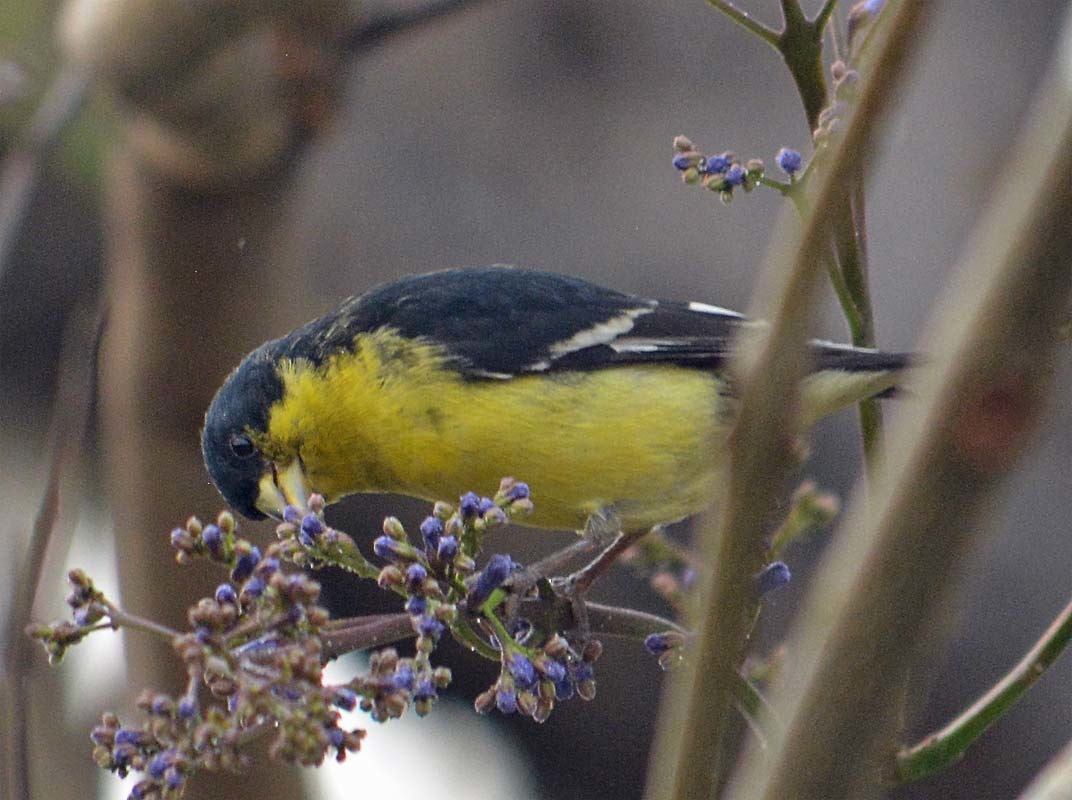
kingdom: Animalia
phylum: Chordata
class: Aves
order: Passeriformes
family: Fringillidae
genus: Spinus
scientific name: Spinus psaltria
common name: Lesser goldfinch
